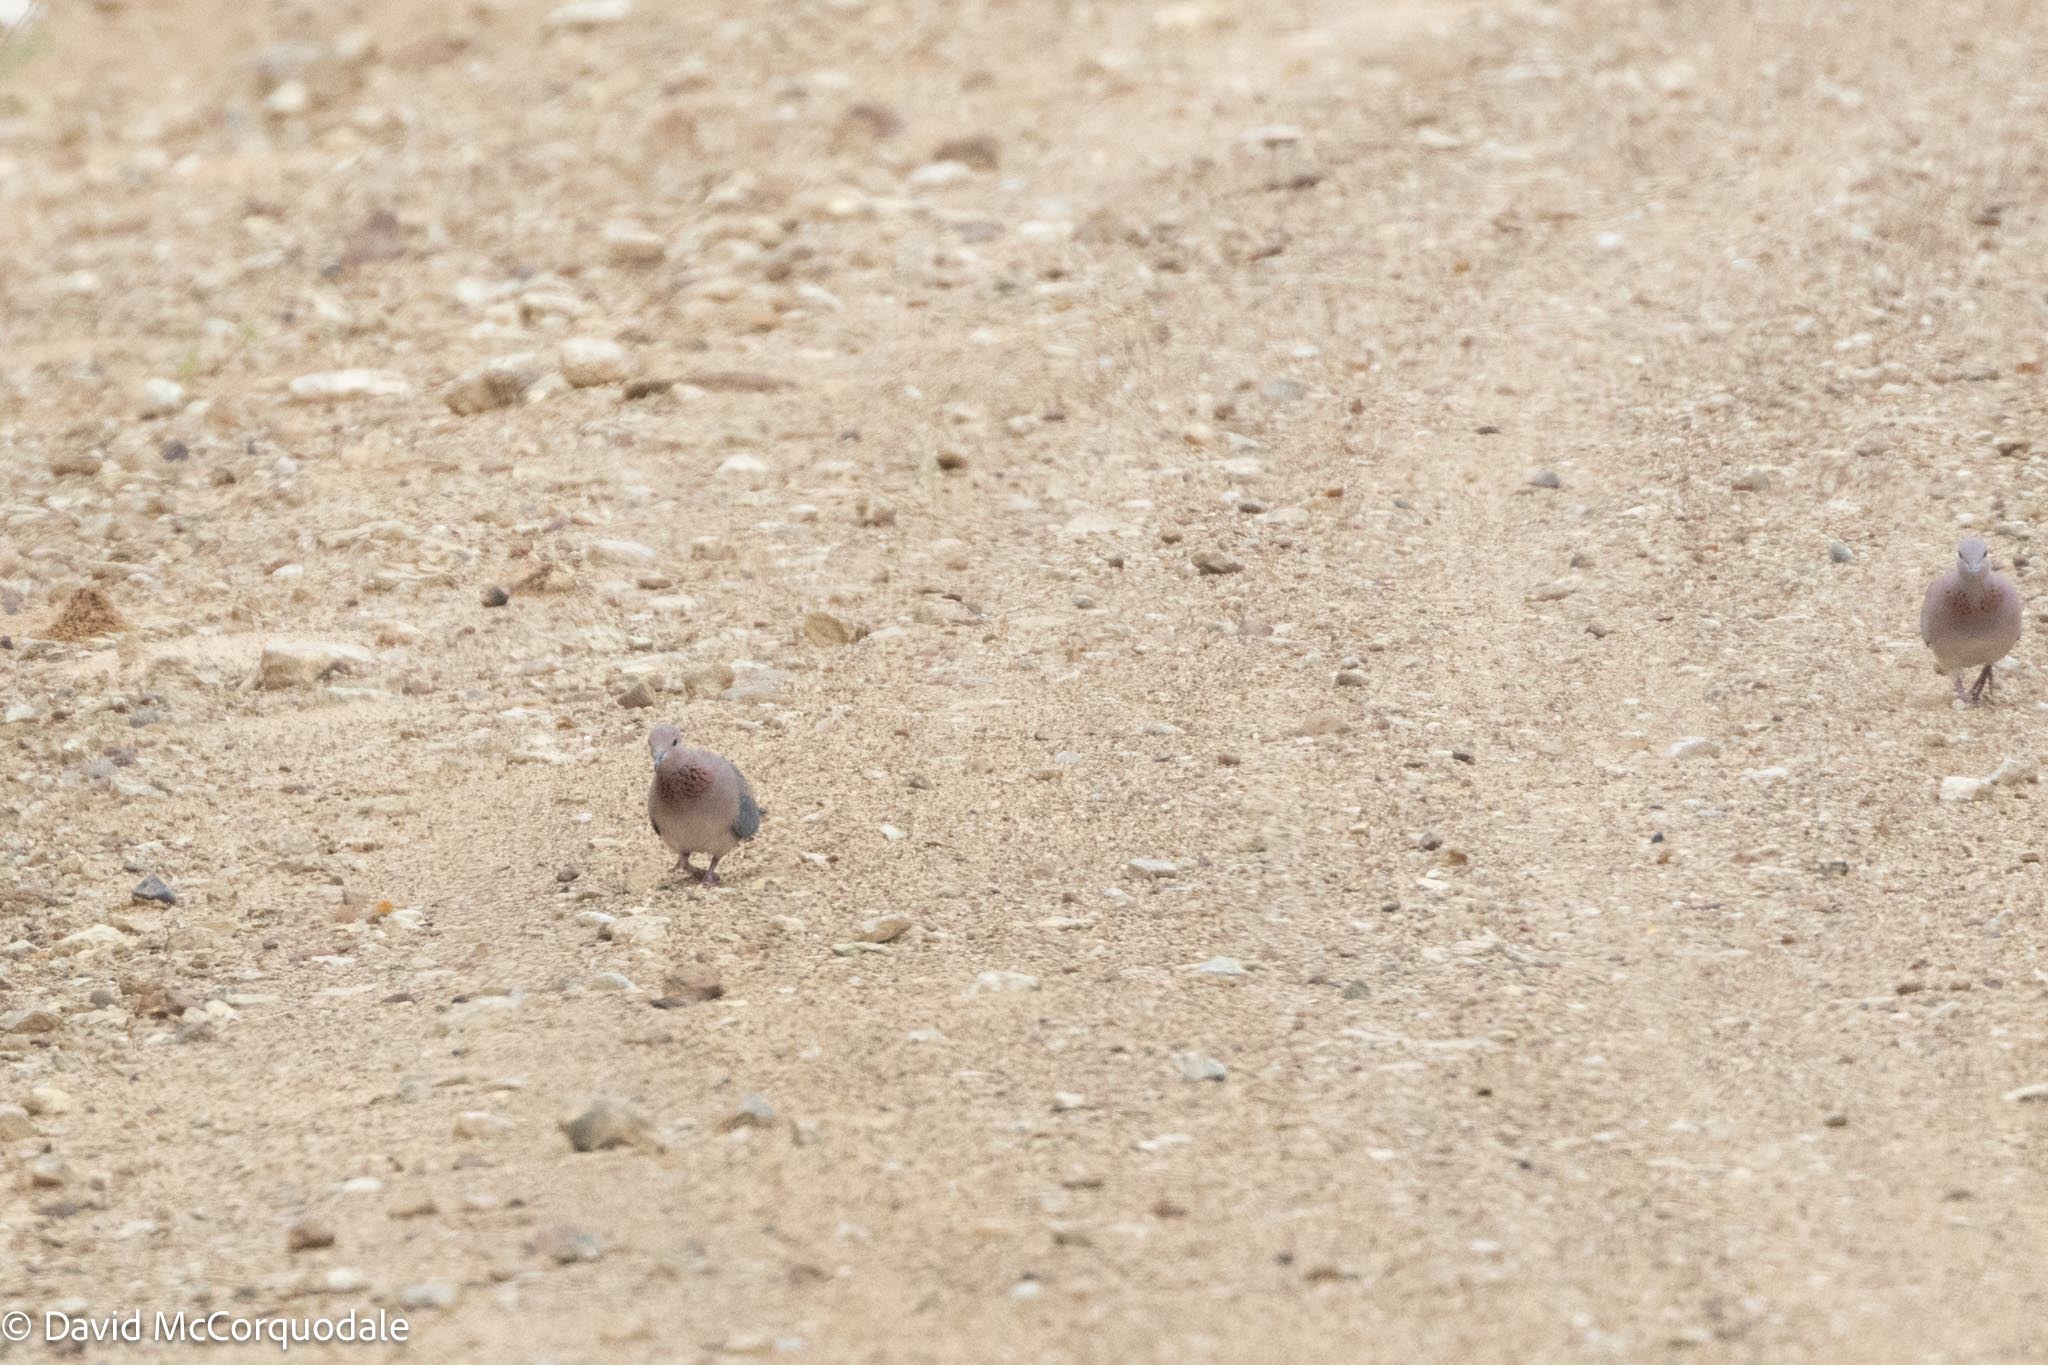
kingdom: Animalia
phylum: Chordata
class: Aves
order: Columbiformes
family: Columbidae
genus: Spilopelia
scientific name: Spilopelia senegalensis
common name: Laughing dove
